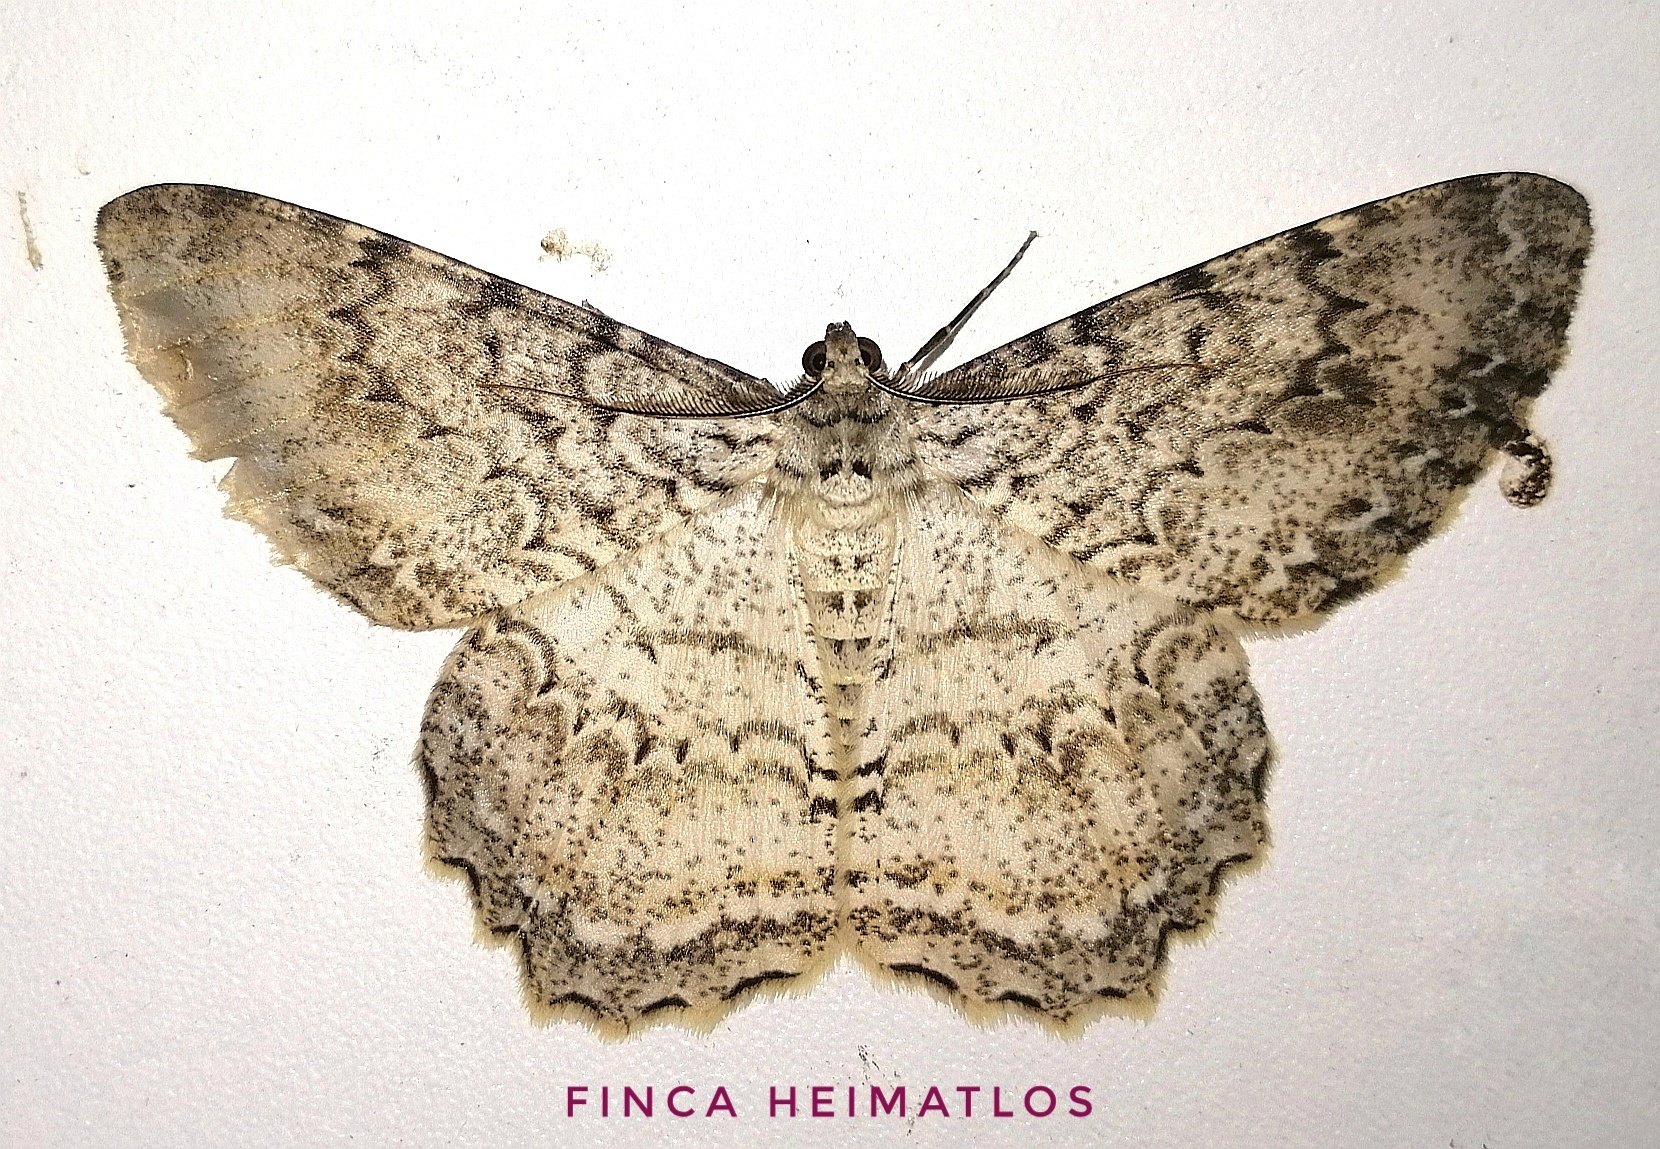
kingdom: Animalia
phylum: Arthropoda
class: Insecta
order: Lepidoptera
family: Geometridae
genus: Epimecis
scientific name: Epimecis marcida
